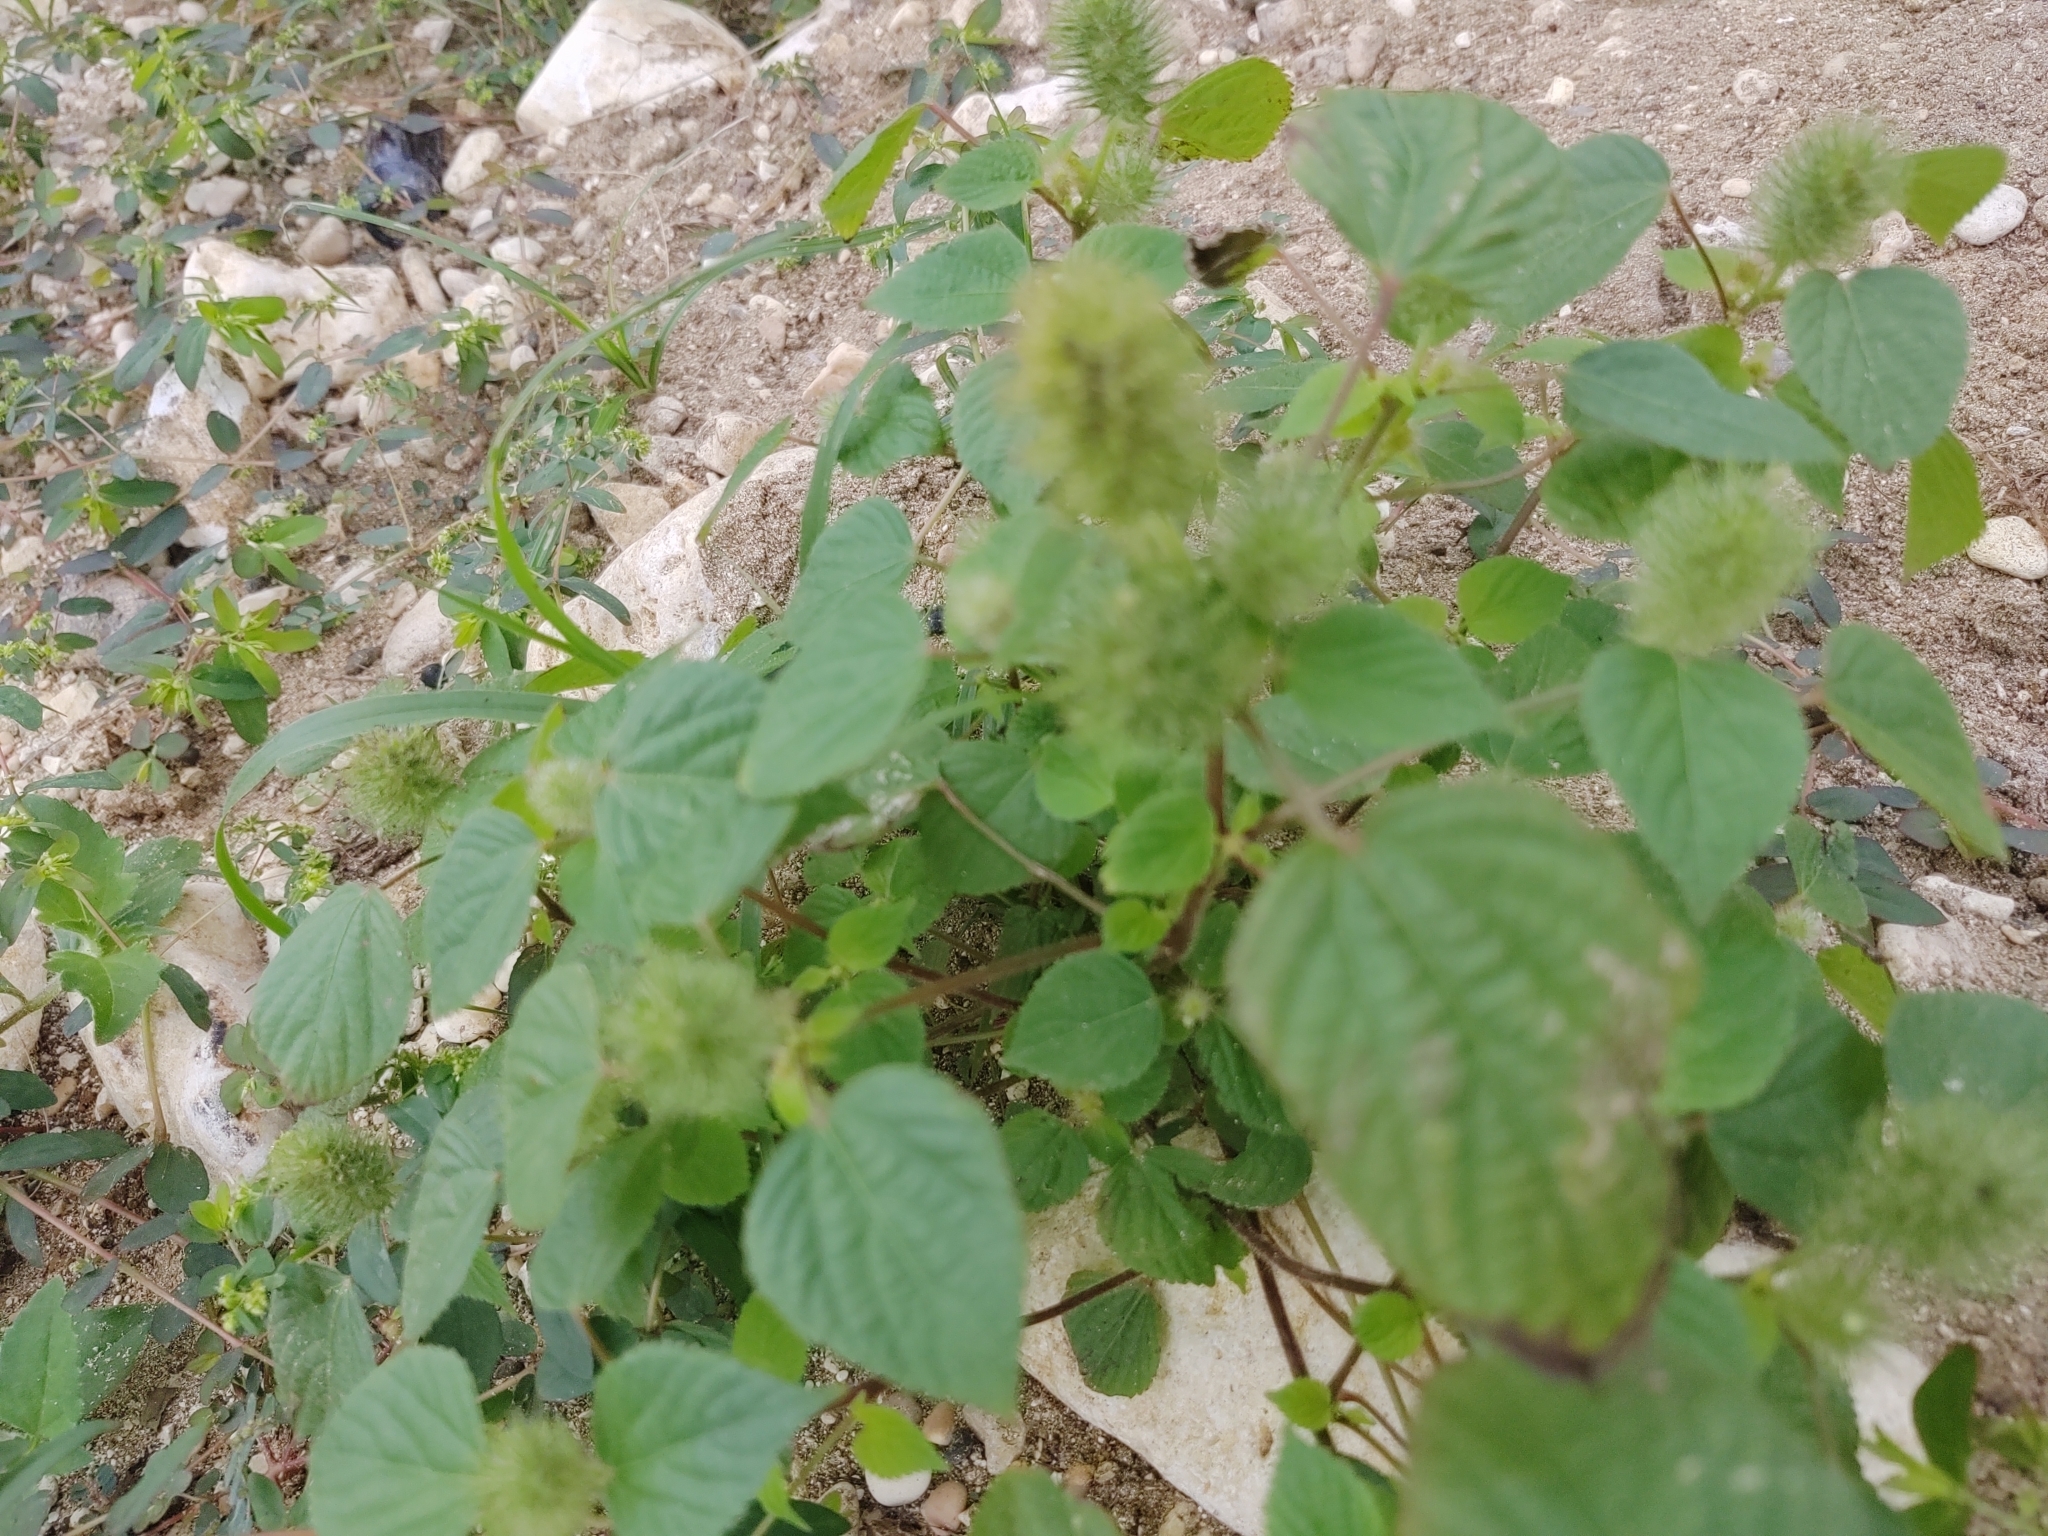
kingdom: Plantae
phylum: Tracheophyta
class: Magnoliopsida
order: Malpighiales
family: Euphorbiaceae
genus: Acalypha
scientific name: Acalypha alopecuroidea
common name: Foxtail copperleaf
